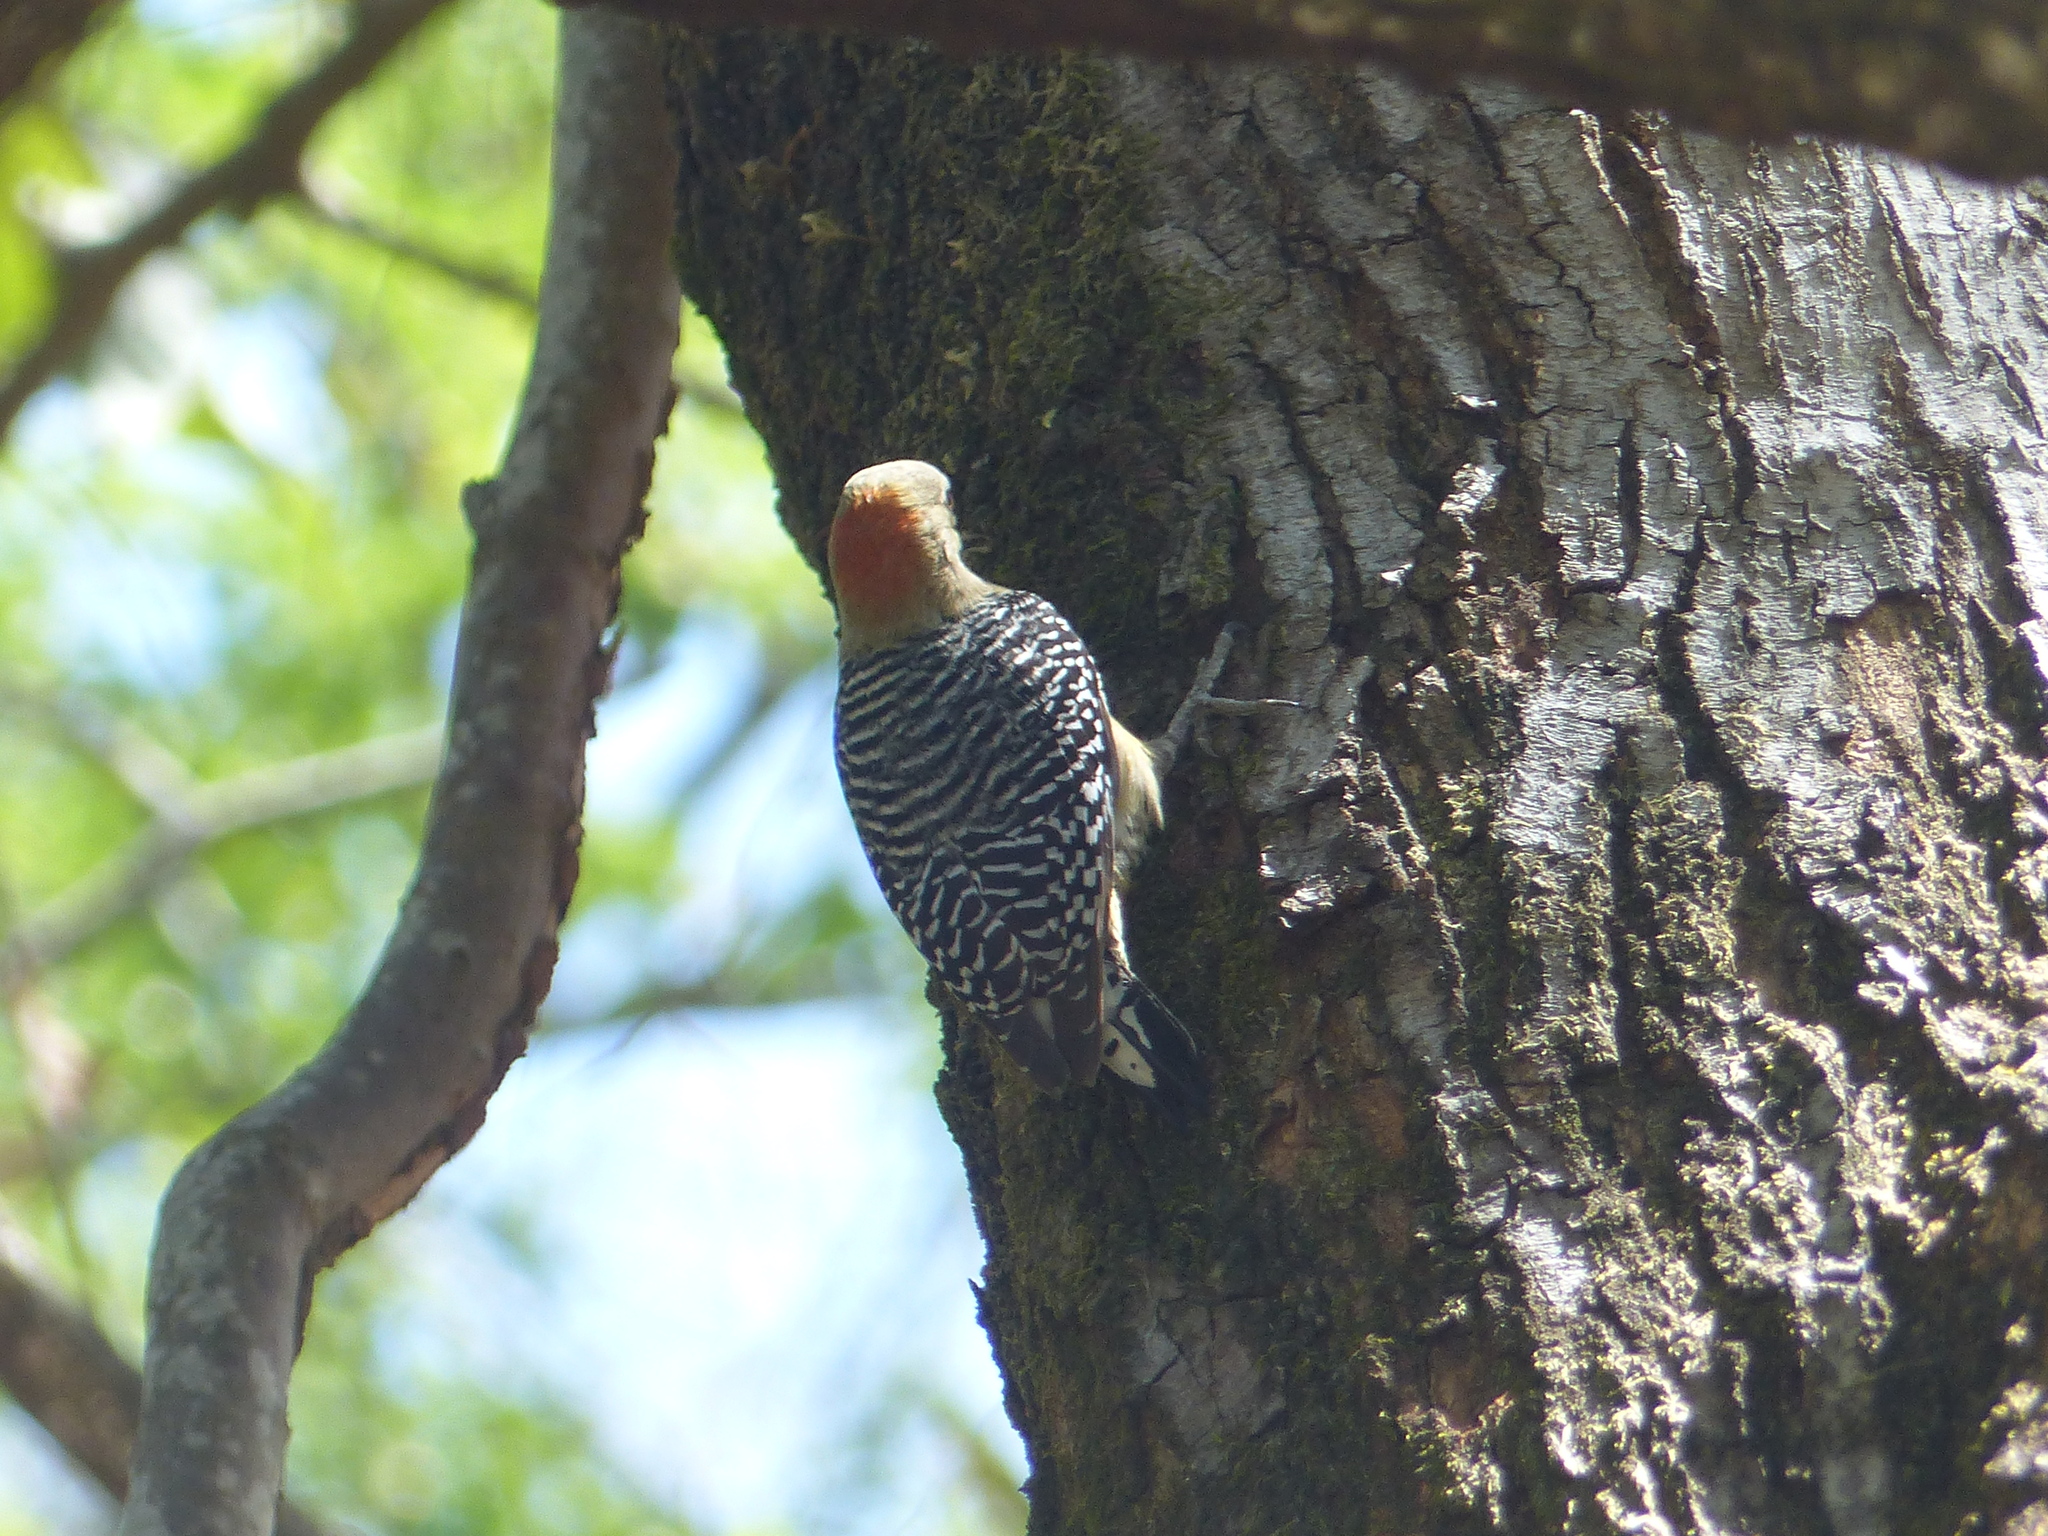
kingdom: Animalia
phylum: Chordata
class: Aves
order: Piciformes
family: Picidae
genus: Melanerpes
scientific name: Melanerpes rubricapillus
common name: Red-crowned woodpecker
